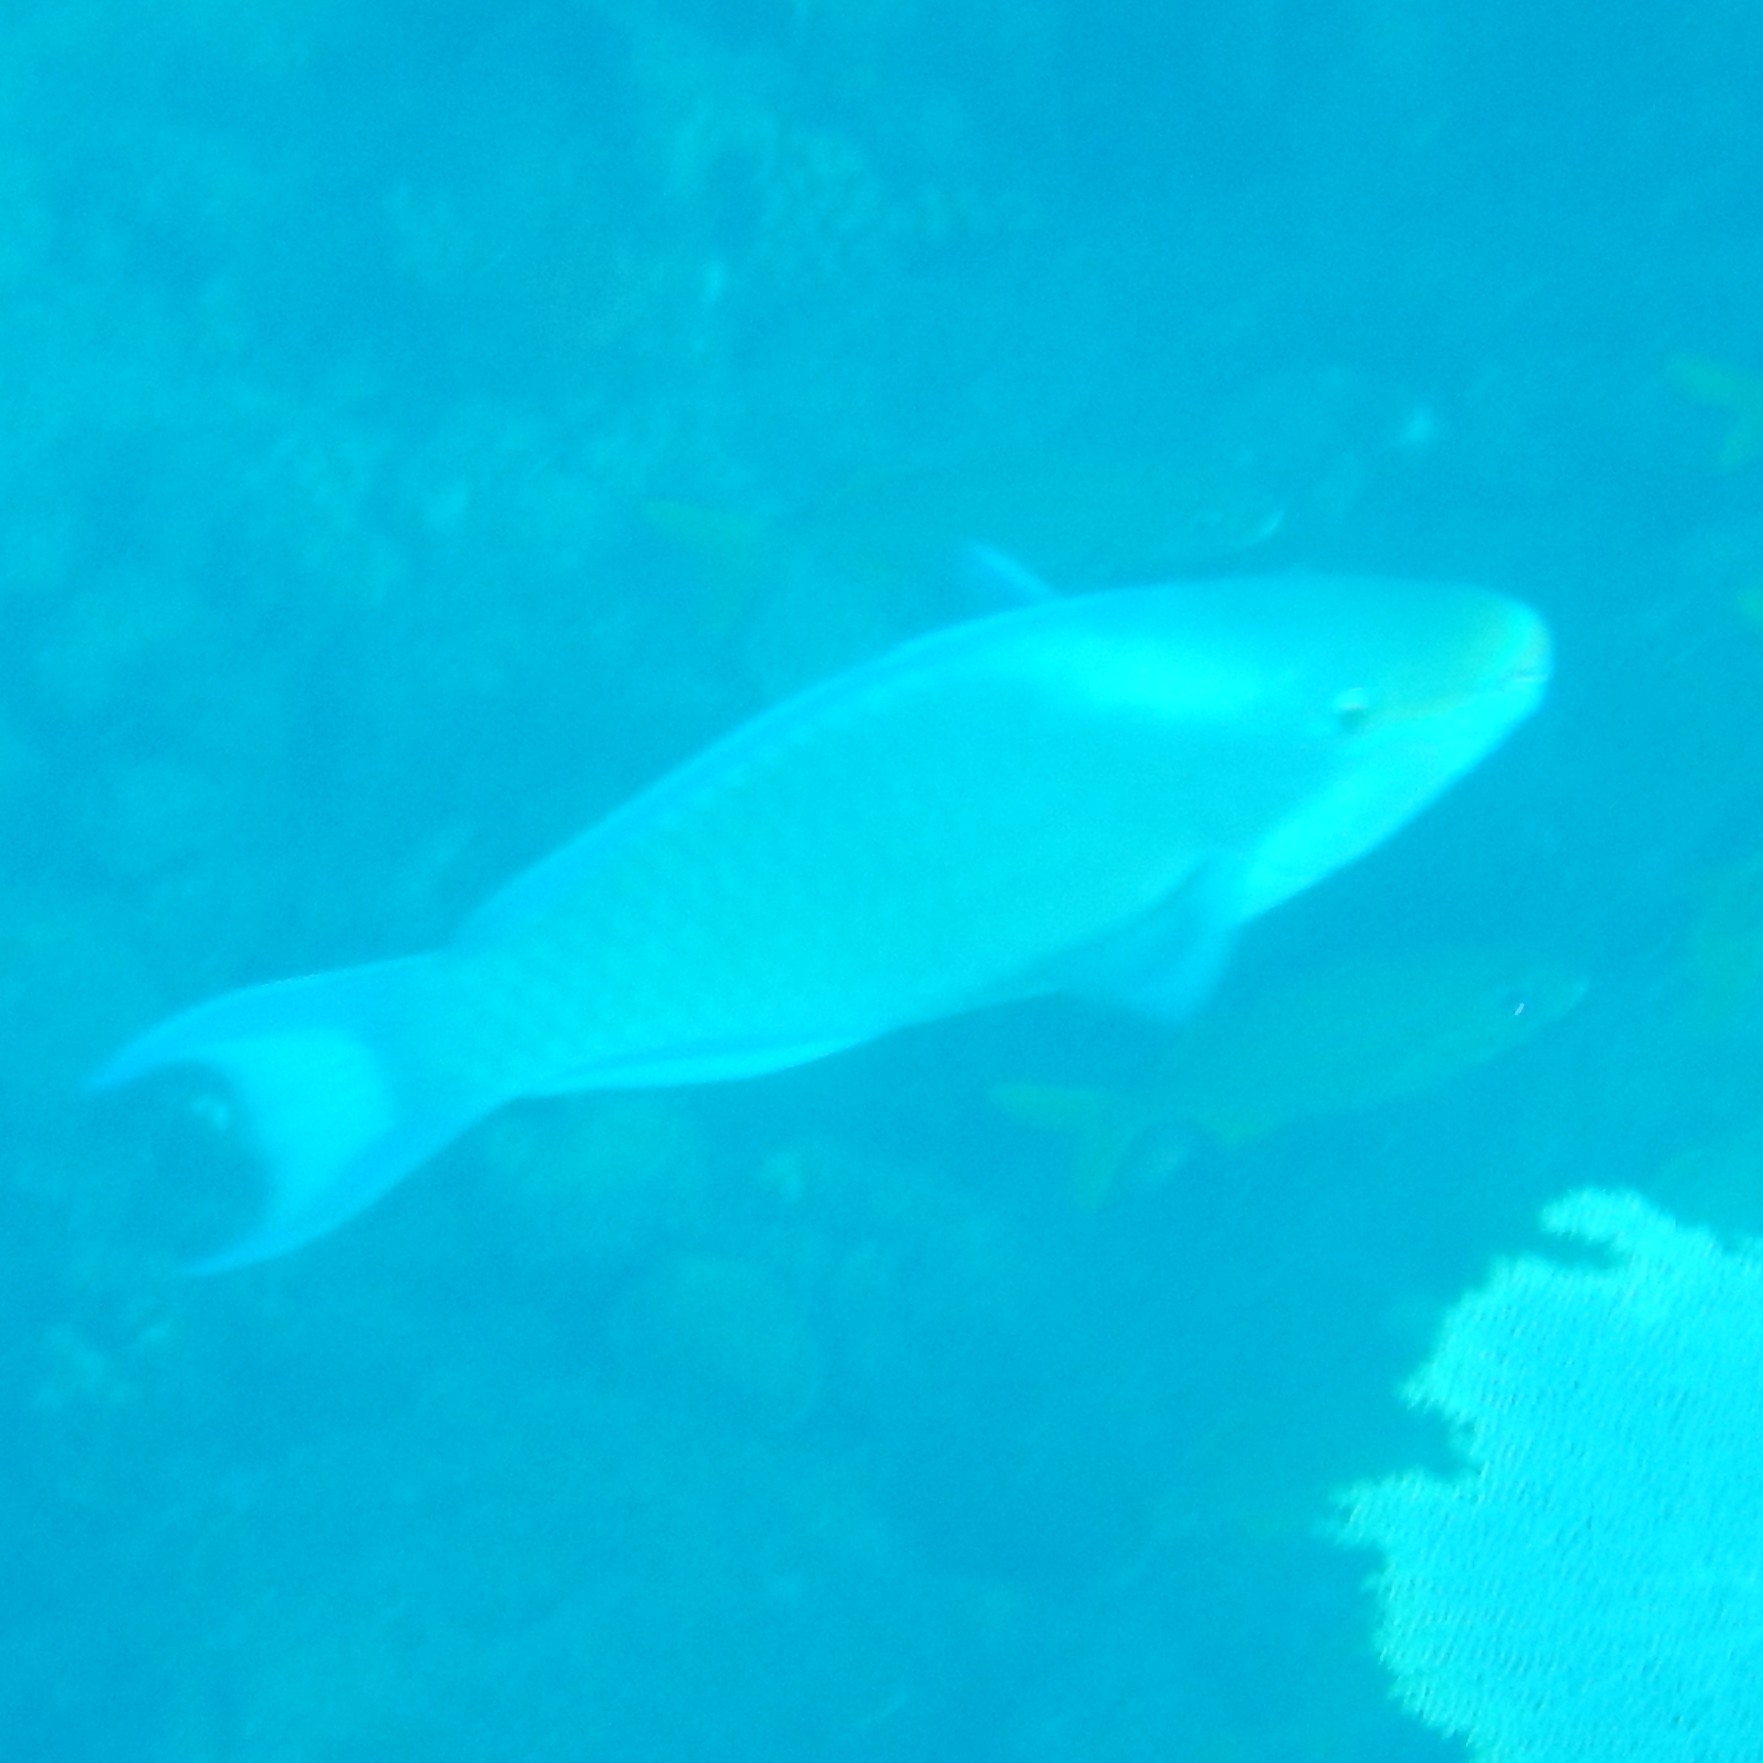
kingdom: Animalia
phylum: Chordata
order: Perciformes
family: Scaridae
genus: Scarus
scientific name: Scarus vetula
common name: Queen parrotfish
